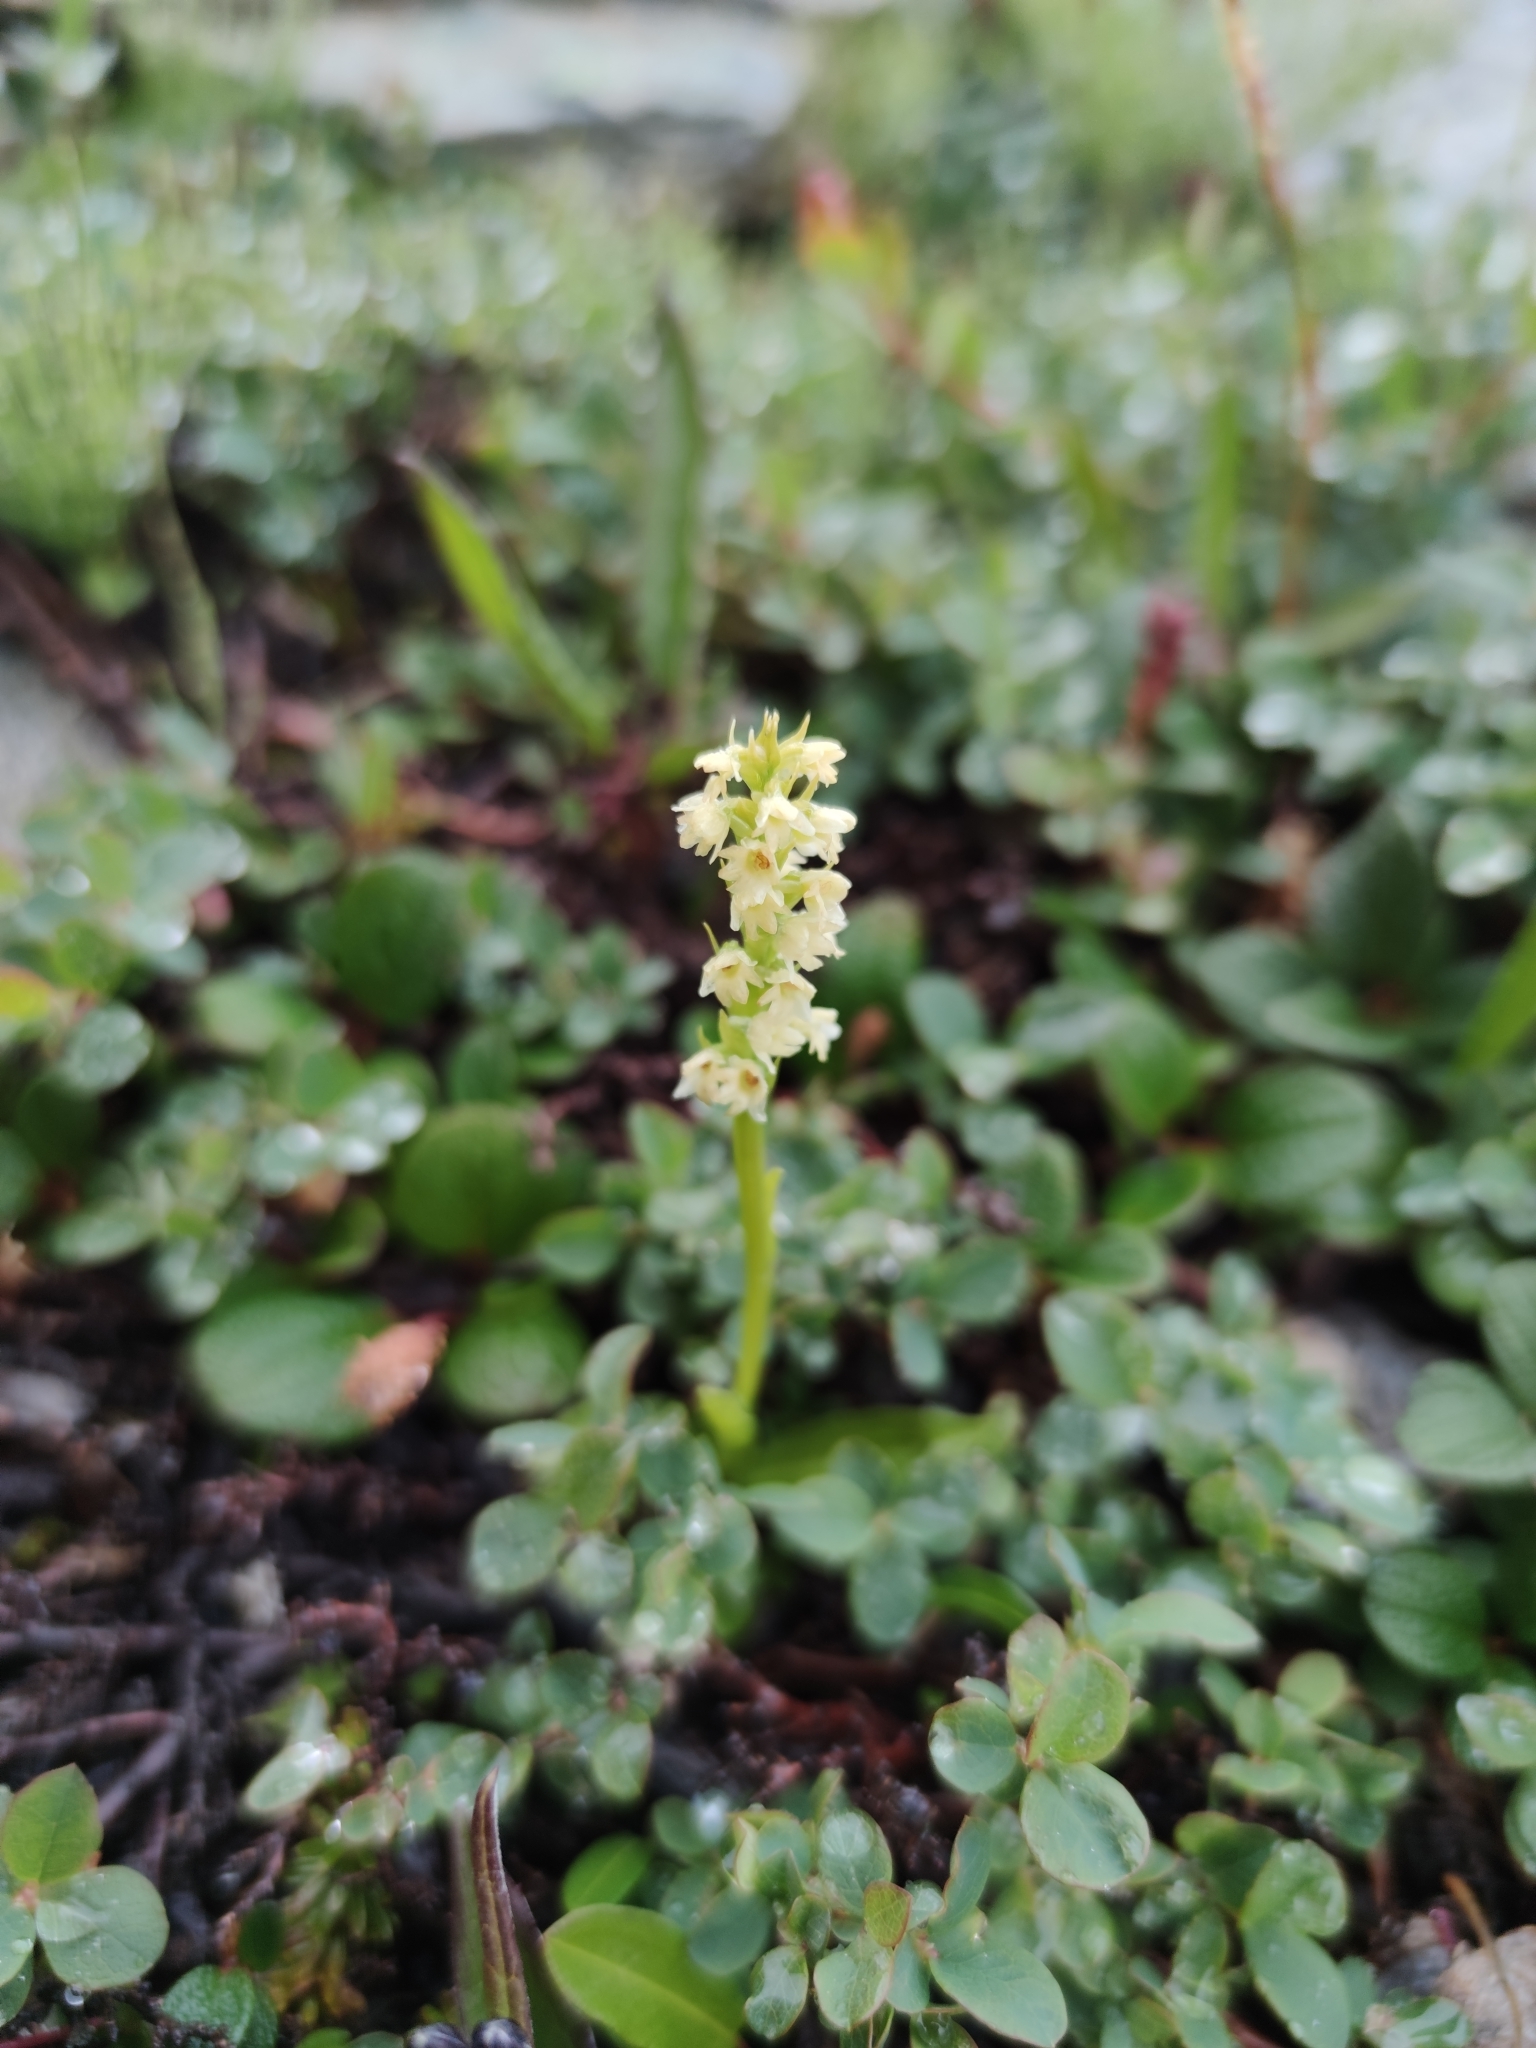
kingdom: Plantae
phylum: Tracheophyta
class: Liliopsida
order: Asparagales
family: Orchidaceae
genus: Pseudorchis
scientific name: Pseudorchis straminea
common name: Vanilla-scented bog orchid
